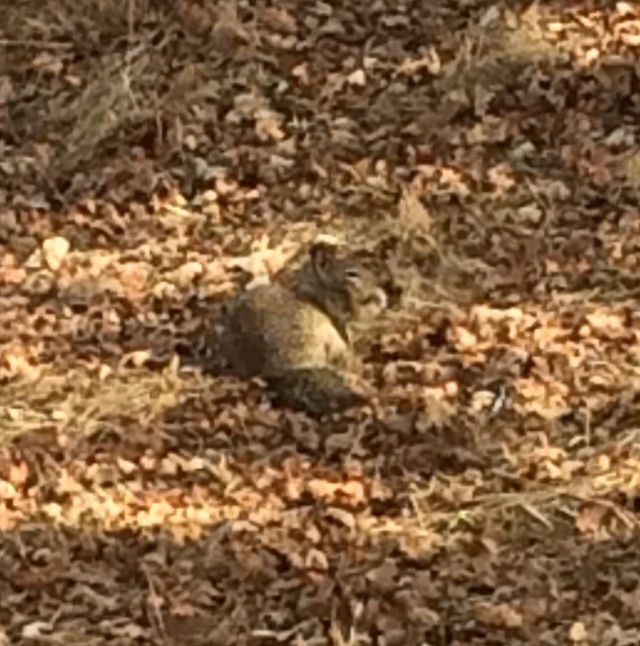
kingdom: Animalia
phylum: Chordata
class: Mammalia
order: Rodentia
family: Sciuridae
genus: Otospermophilus
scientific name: Otospermophilus beecheyi
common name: California ground squirrel
